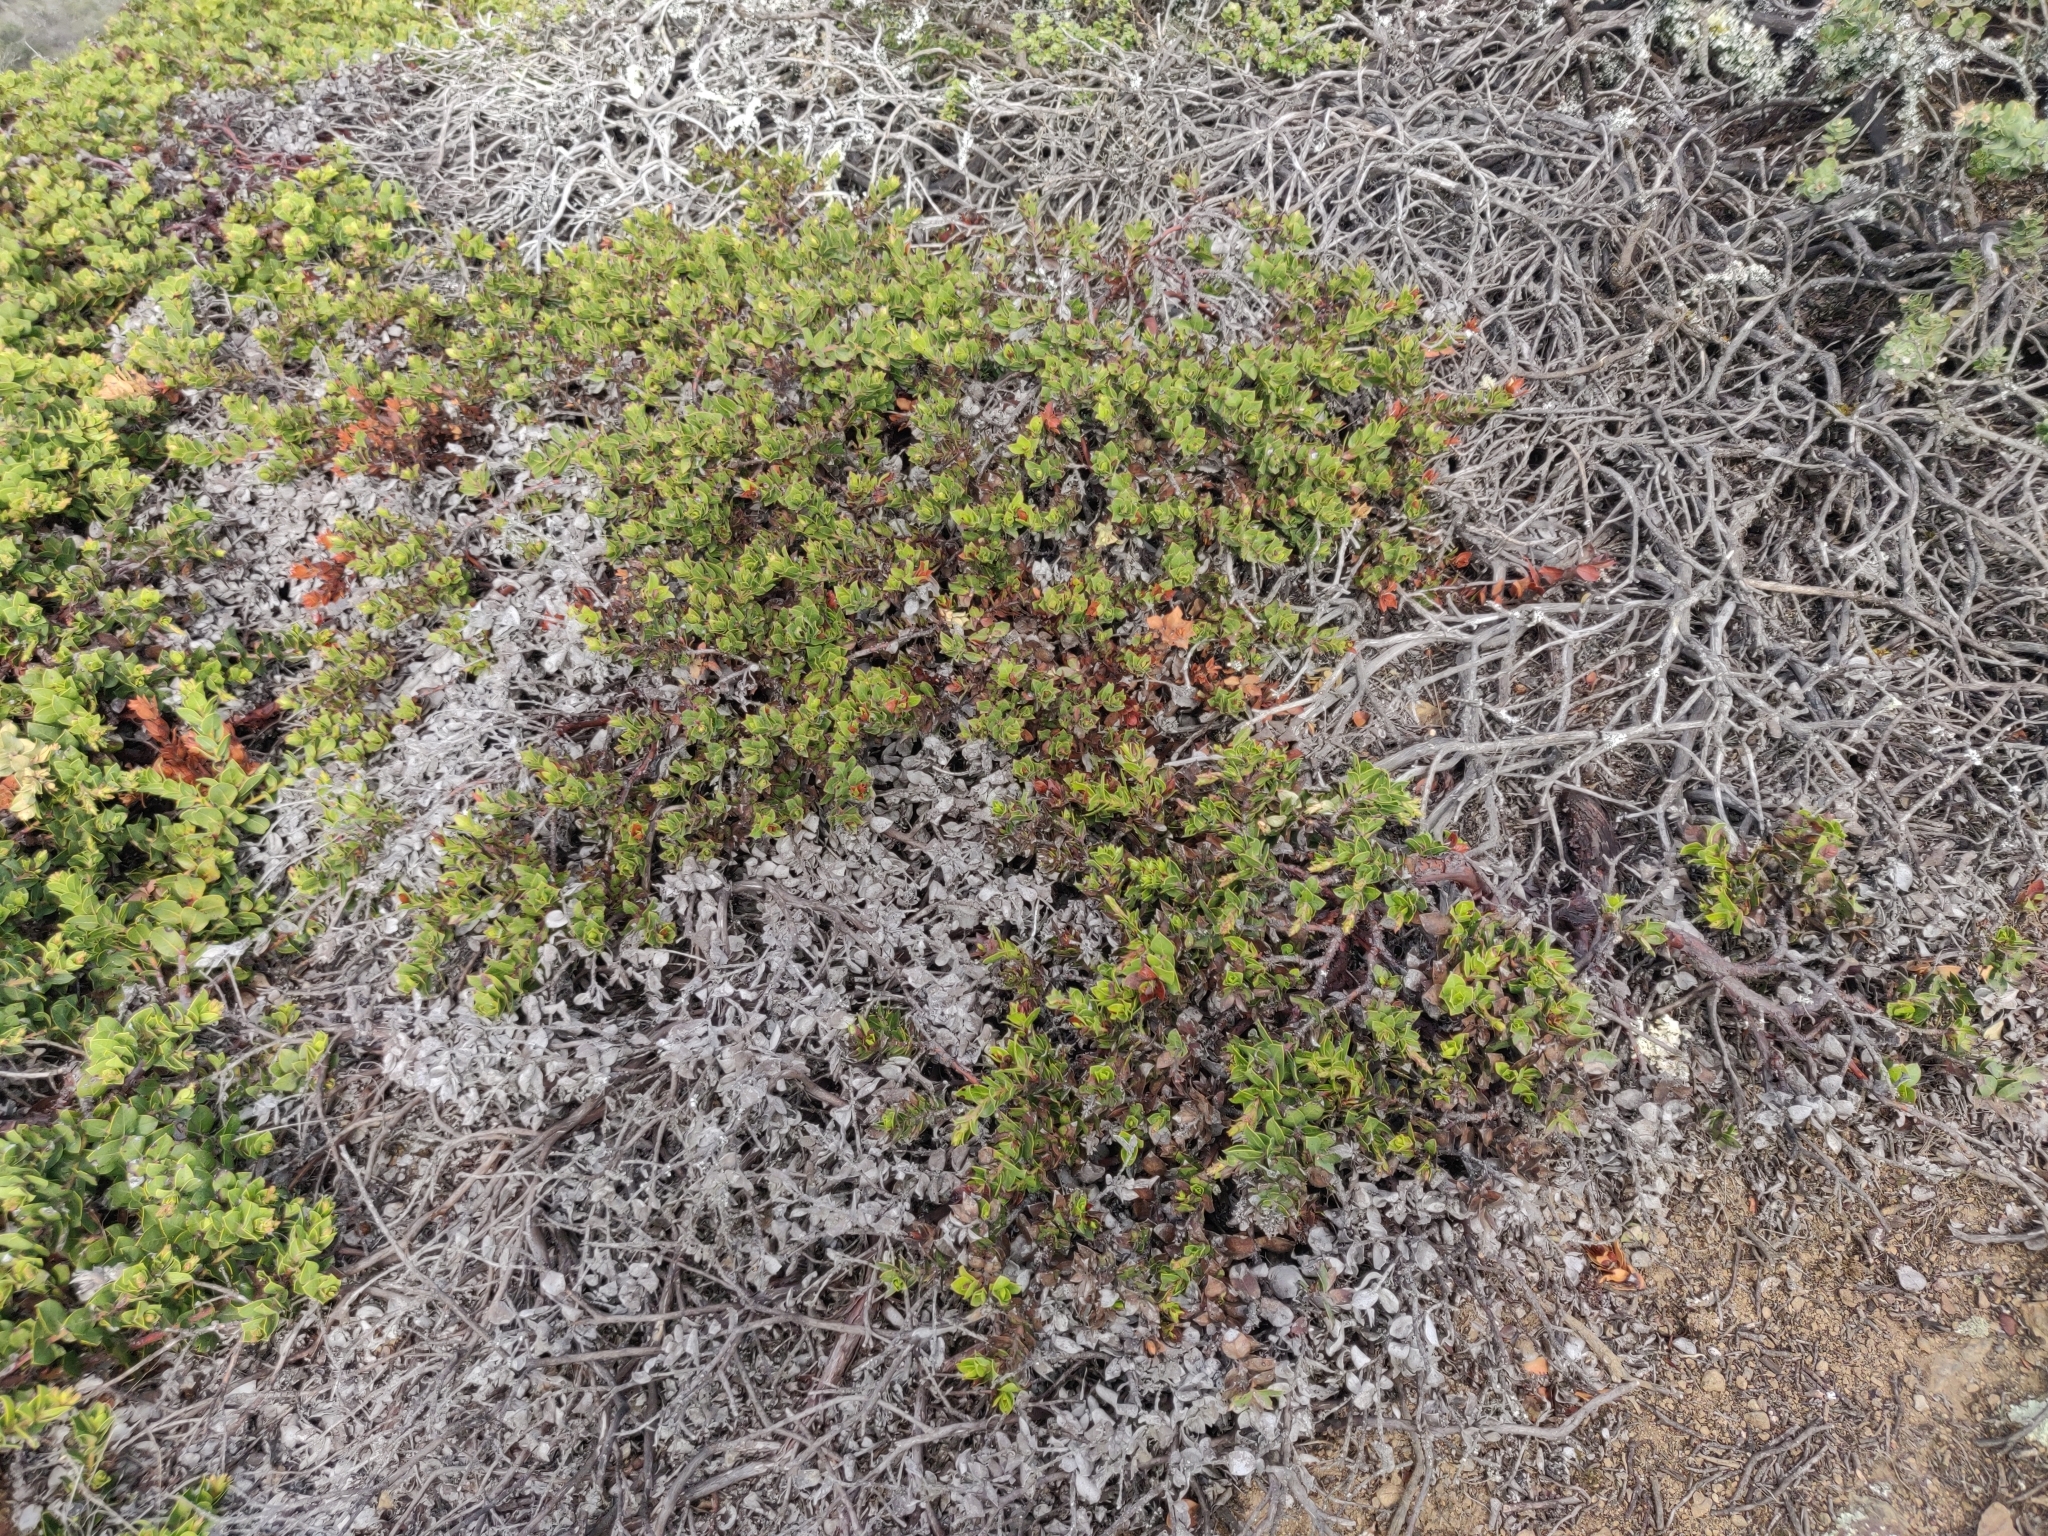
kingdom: Plantae
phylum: Tracheophyta
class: Magnoliopsida
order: Ericales
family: Ericaceae
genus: Arctostaphylos
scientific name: Arctostaphylos imbricata
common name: San bruno mountain manzanita
